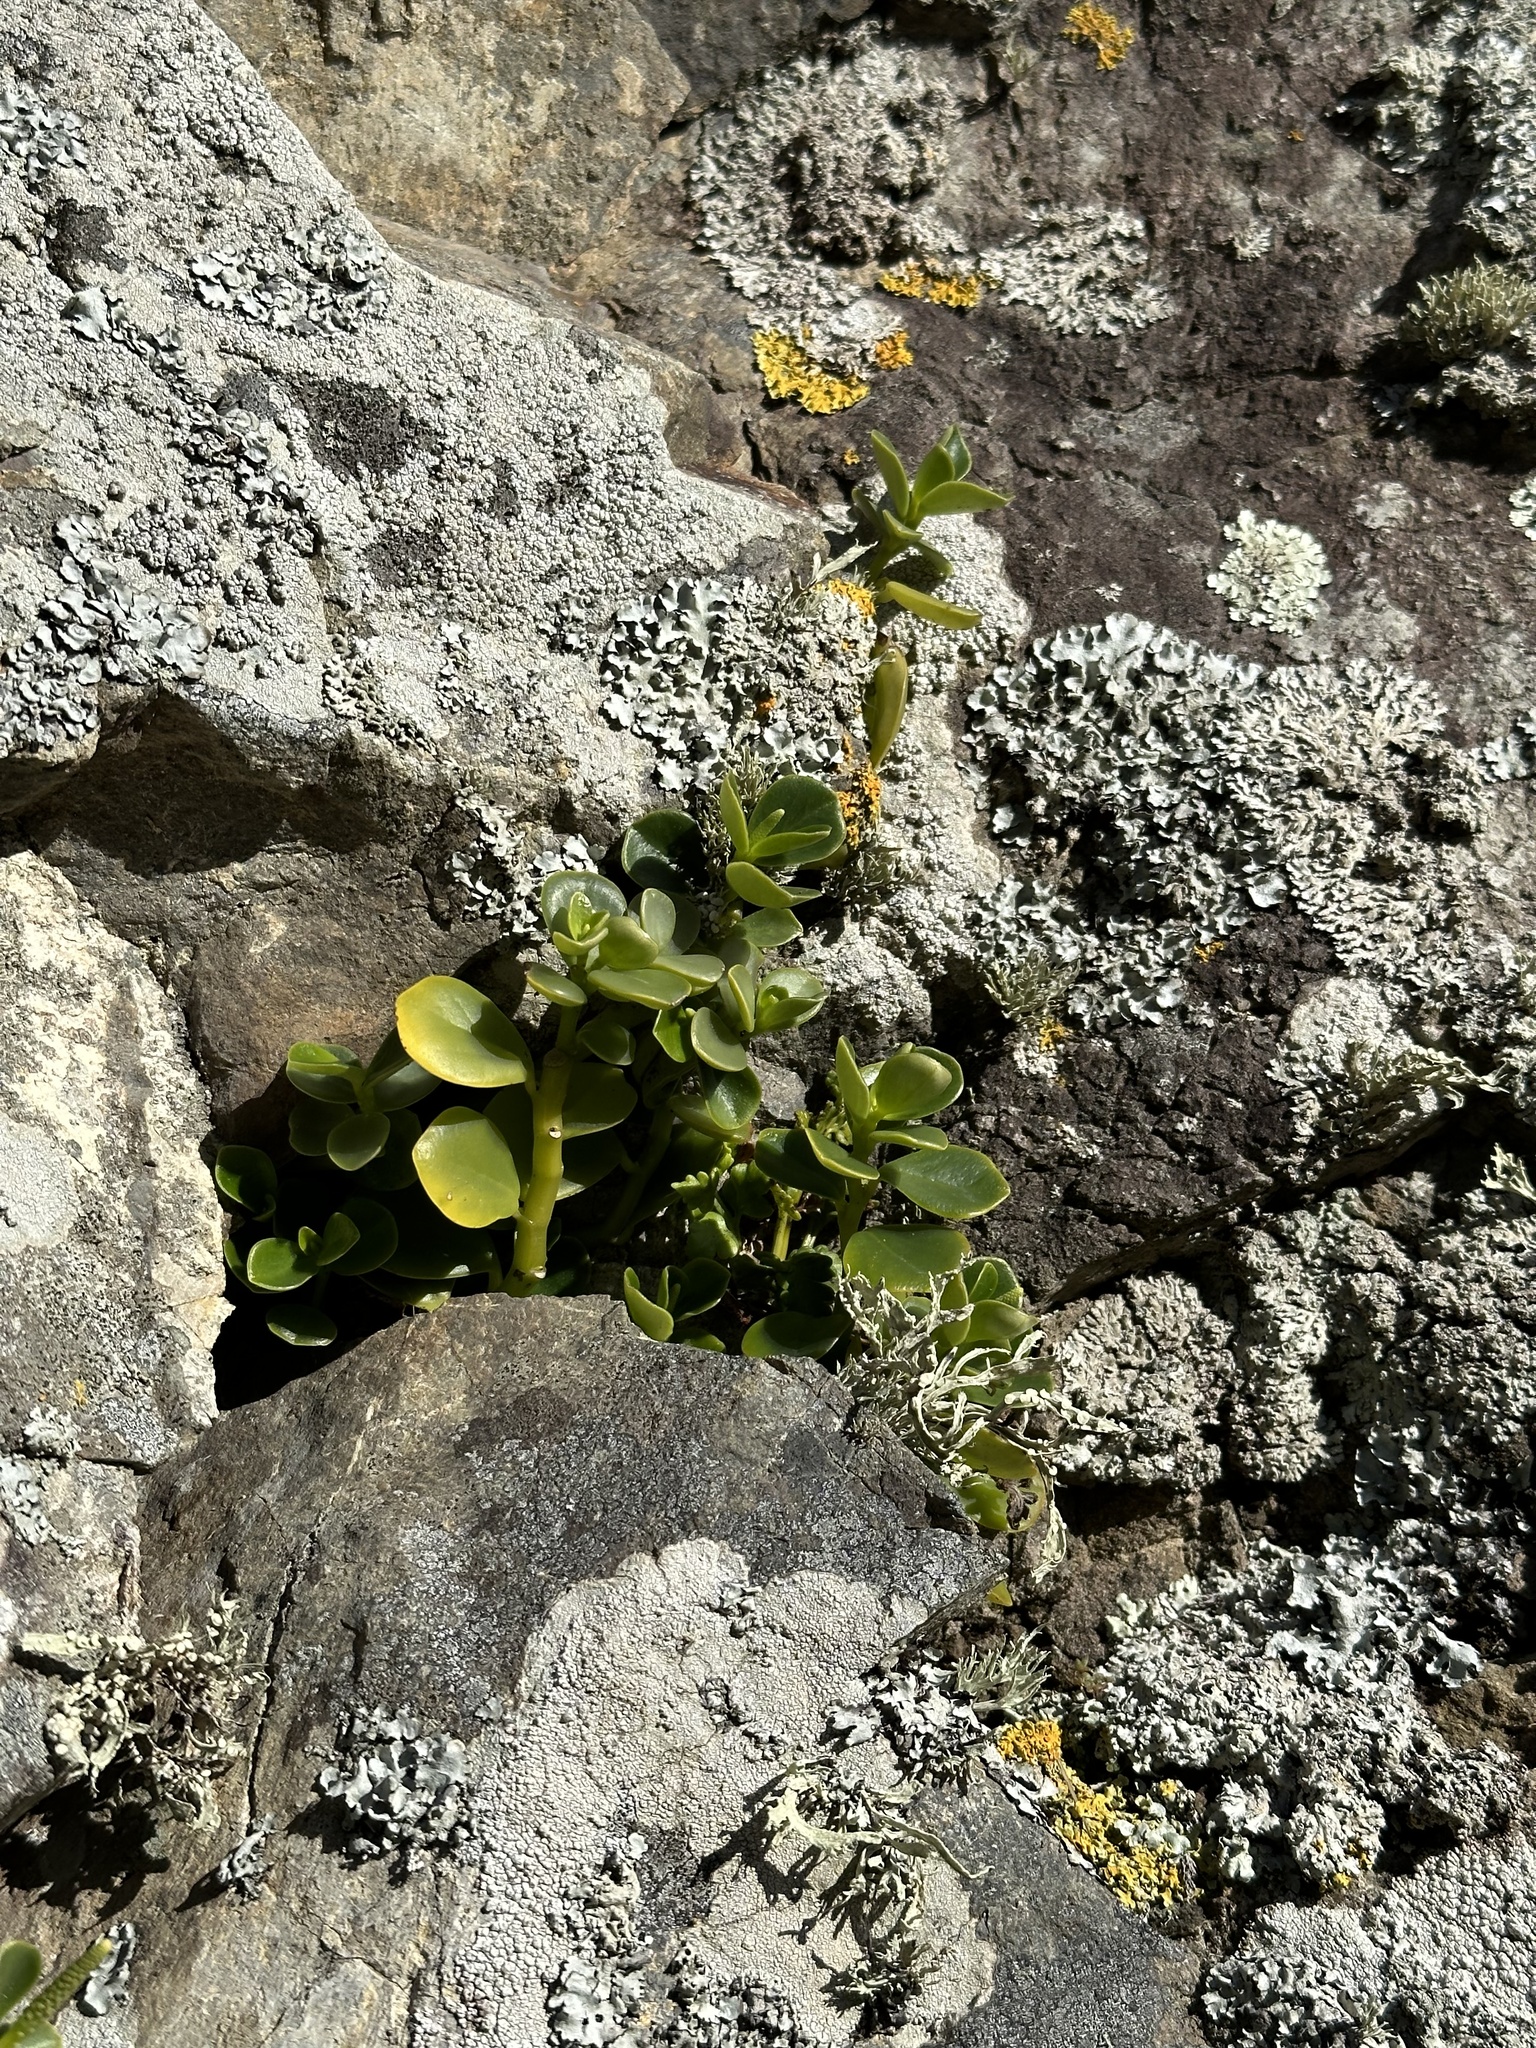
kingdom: Plantae
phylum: Tracheophyta
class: Magnoliopsida
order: Piperales
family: Piperaceae
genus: Peperomia
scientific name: Peperomia urvilleana
